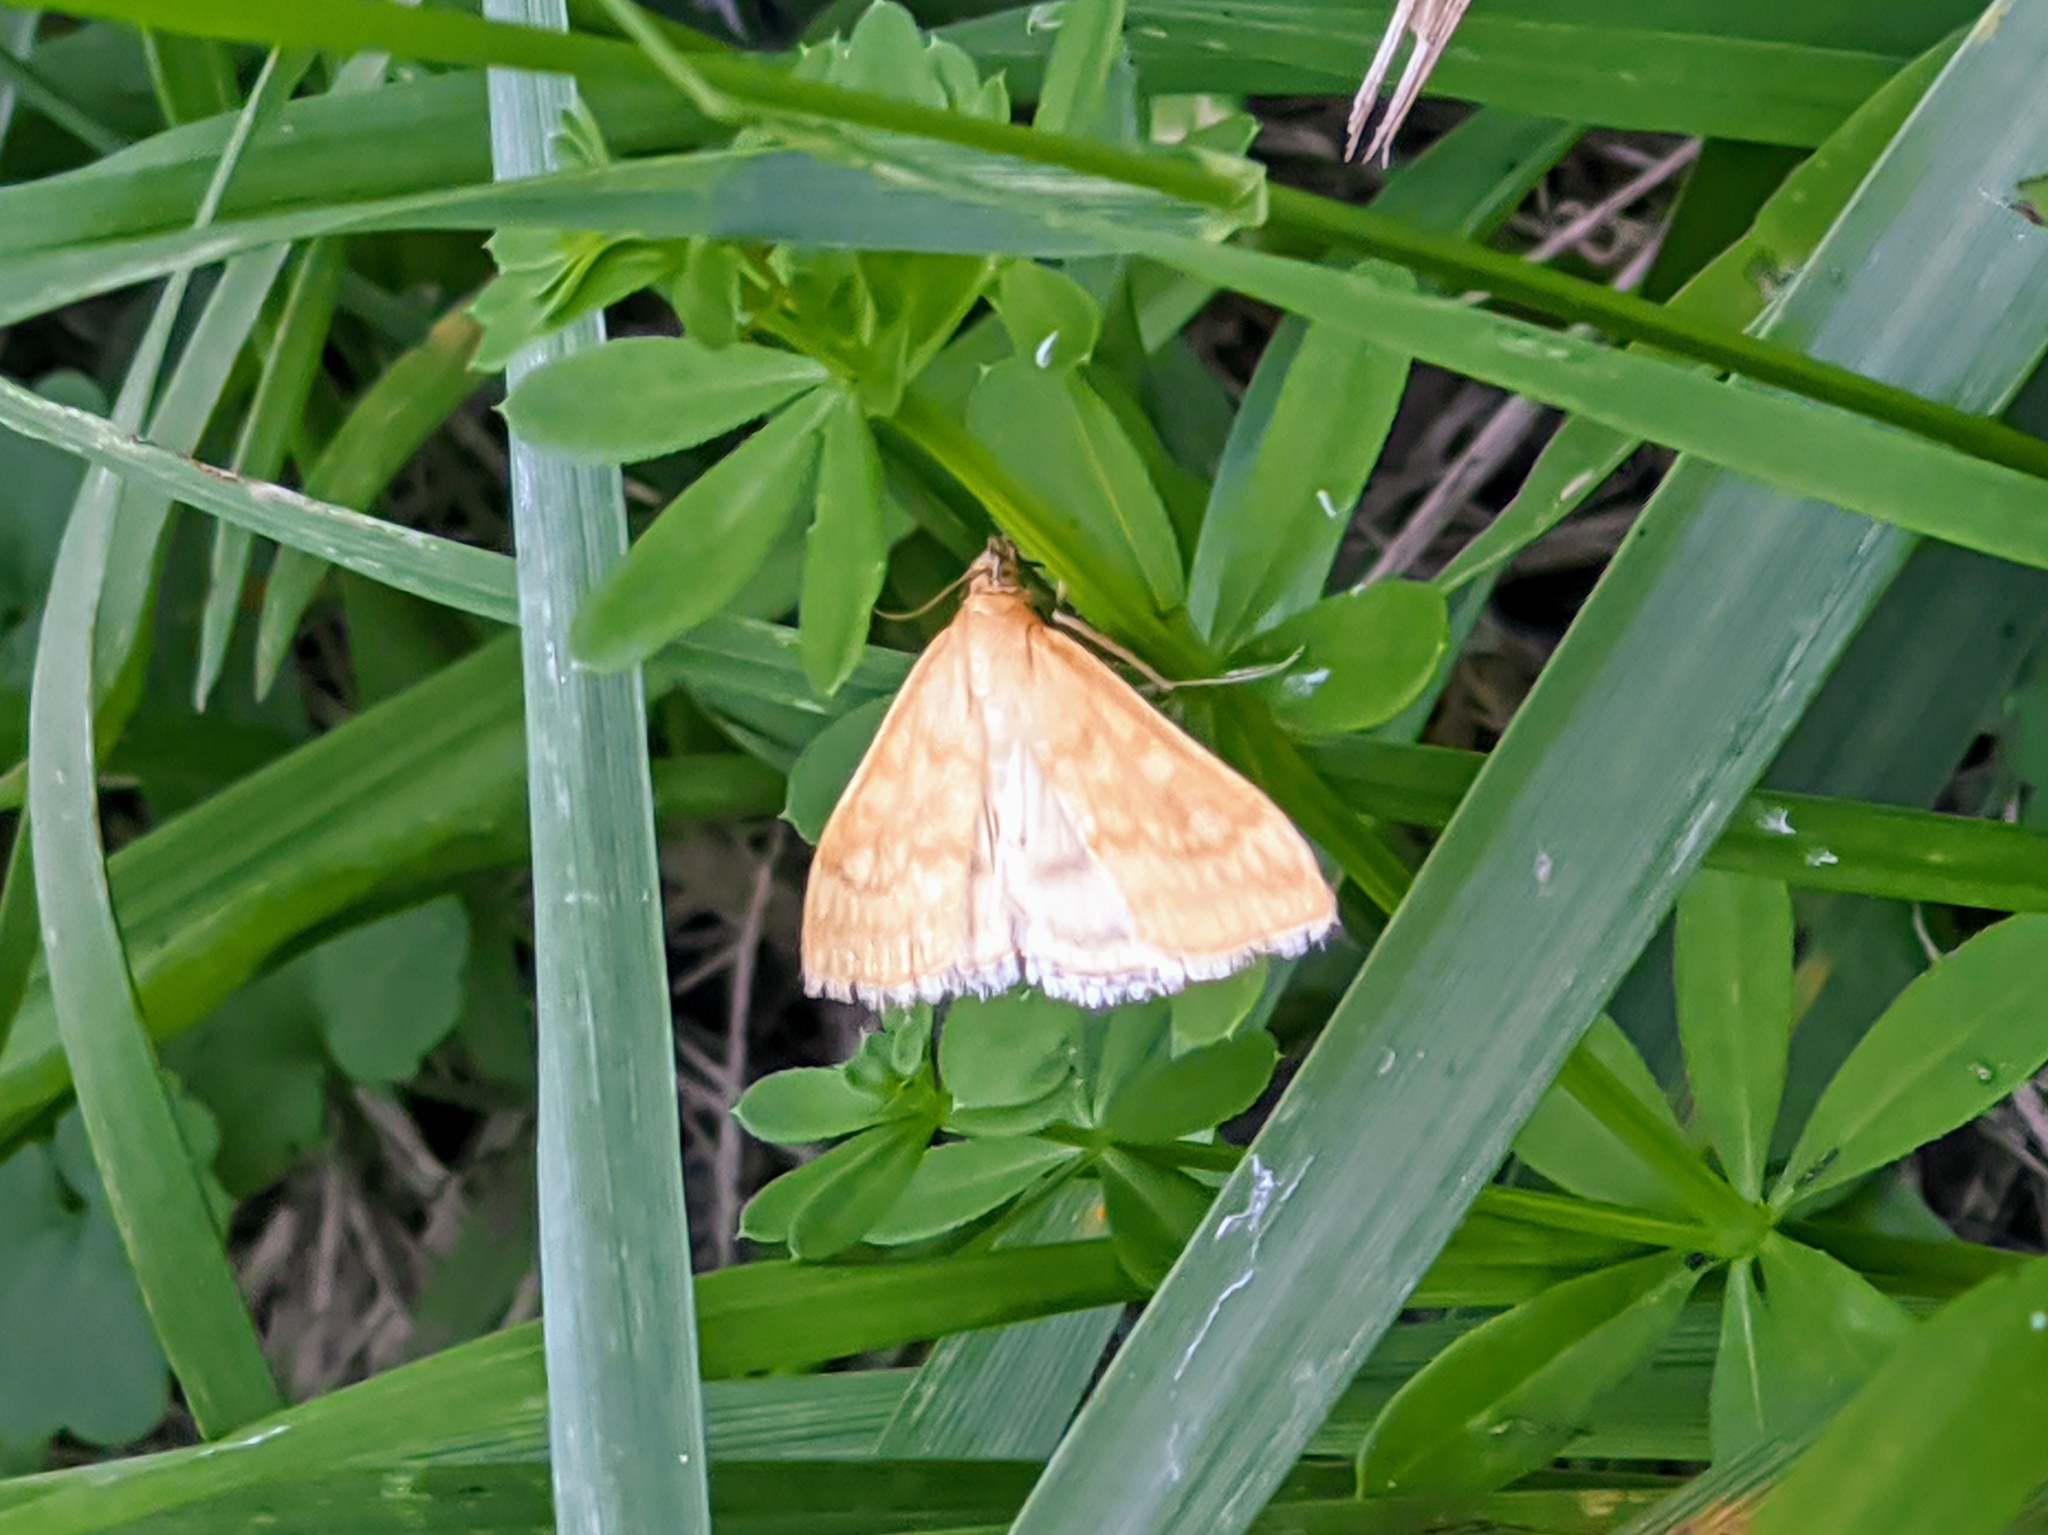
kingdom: Animalia
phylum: Arthropoda
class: Insecta
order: Lepidoptera
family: Crambidae
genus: Sitochroa
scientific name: Sitochroa verticalis
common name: Lesser pearl
